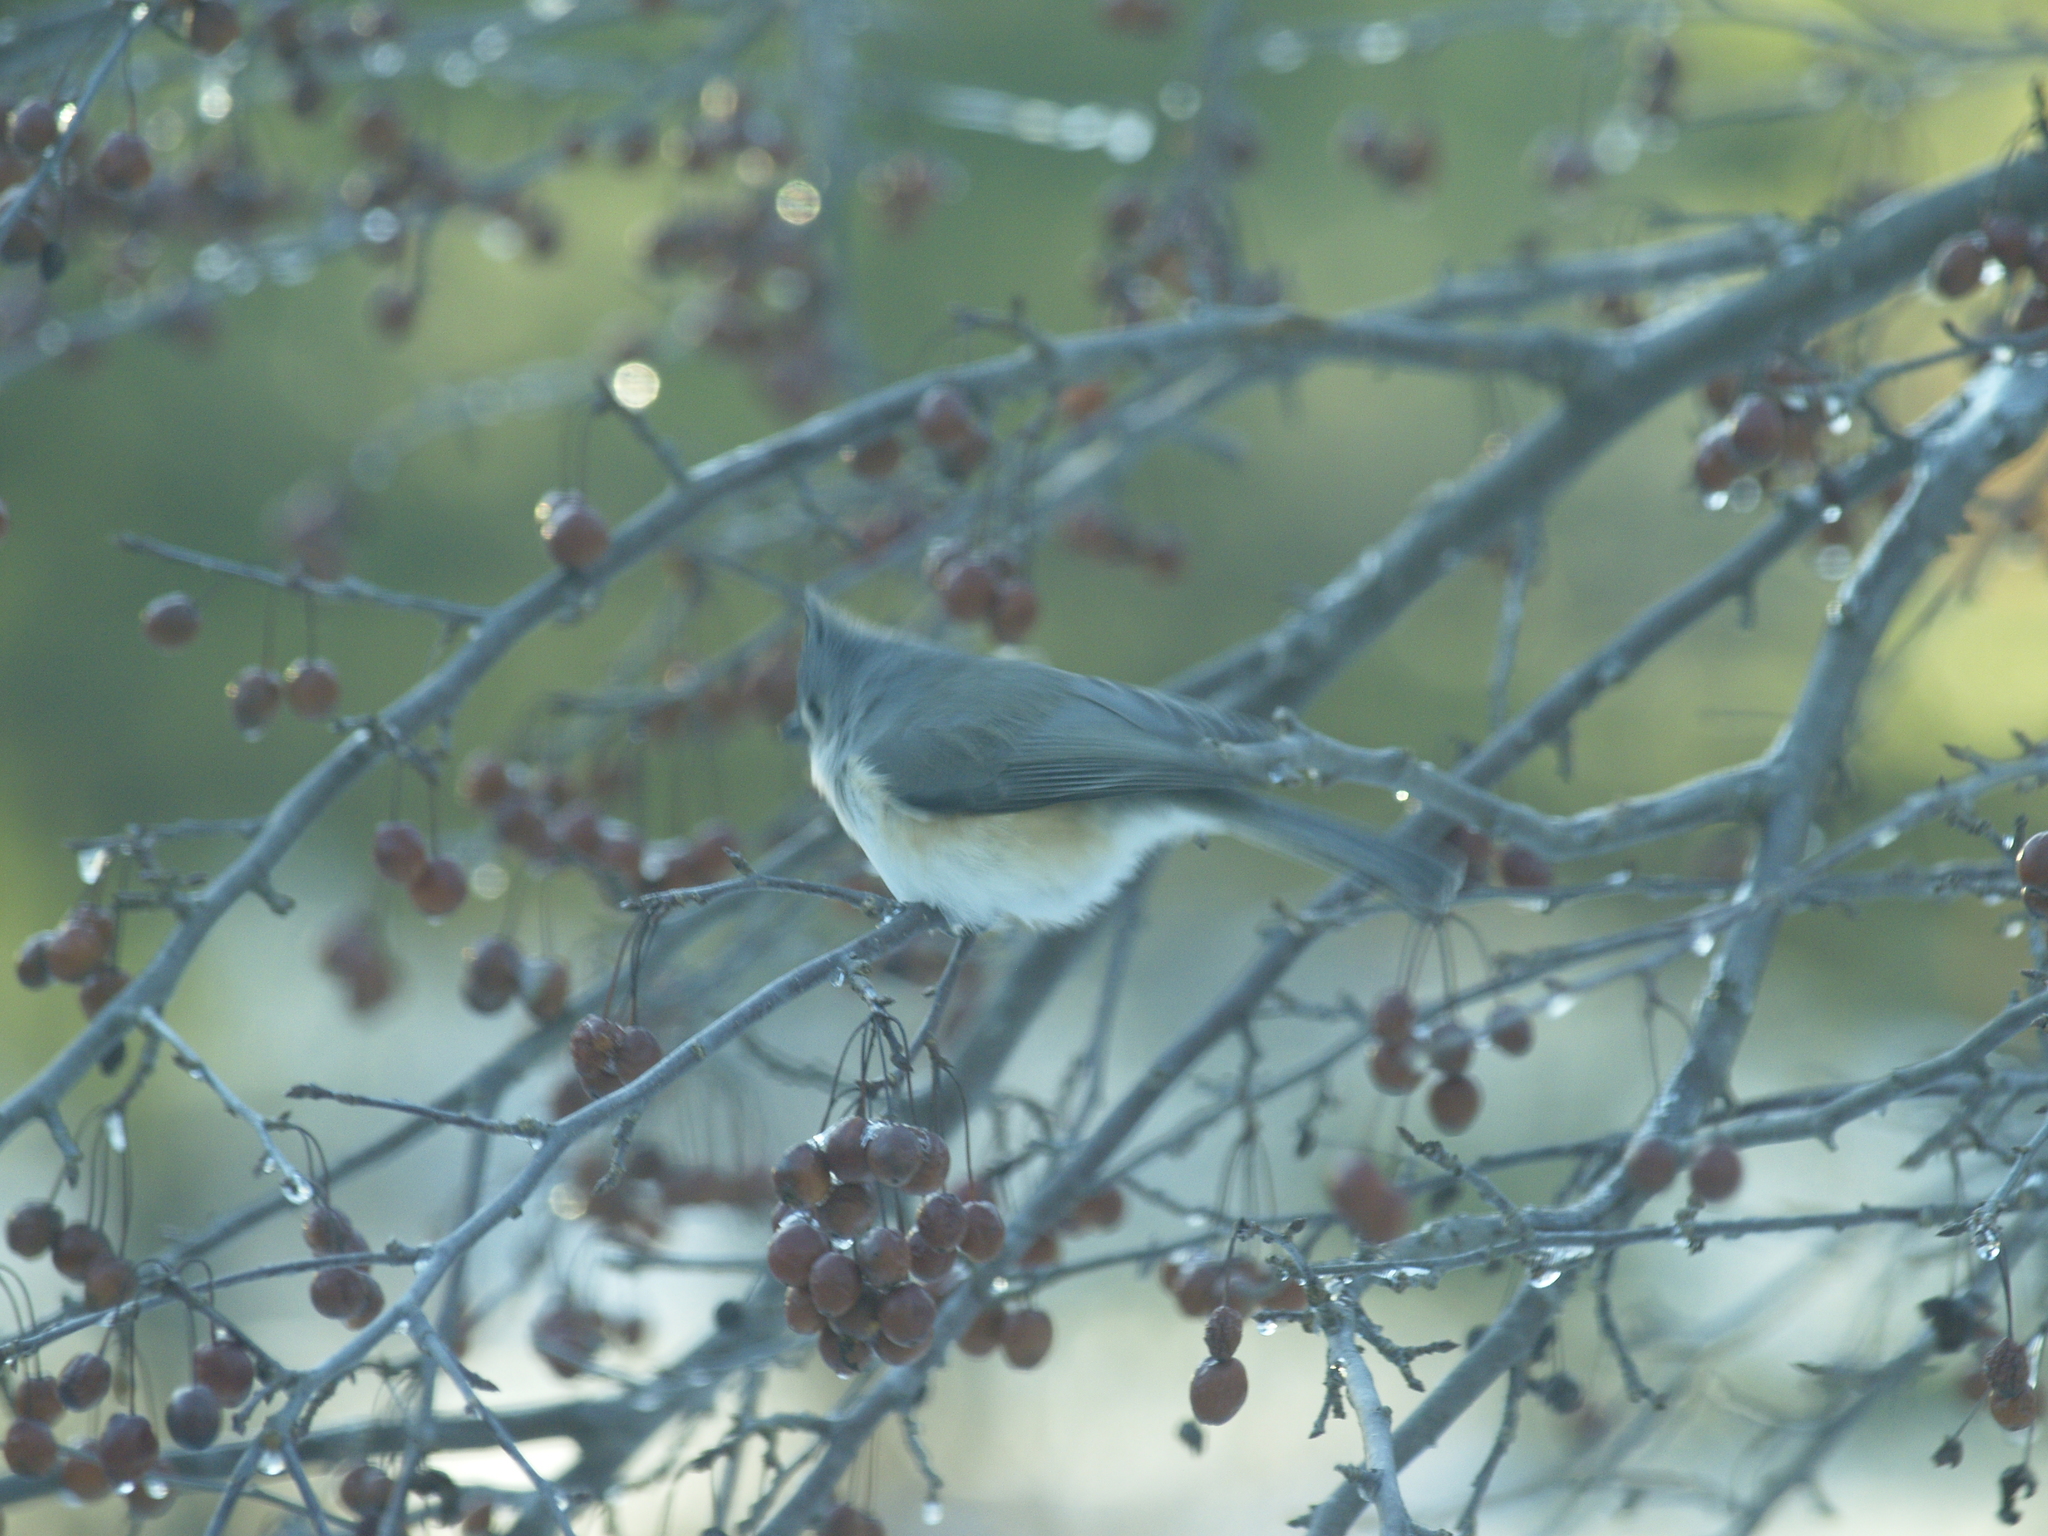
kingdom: Animalia
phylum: Chordata
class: Aves
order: Passeriformes
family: Paridae
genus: Baeolophus
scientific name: Baeolophus bicolor
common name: Tufted titmouse
